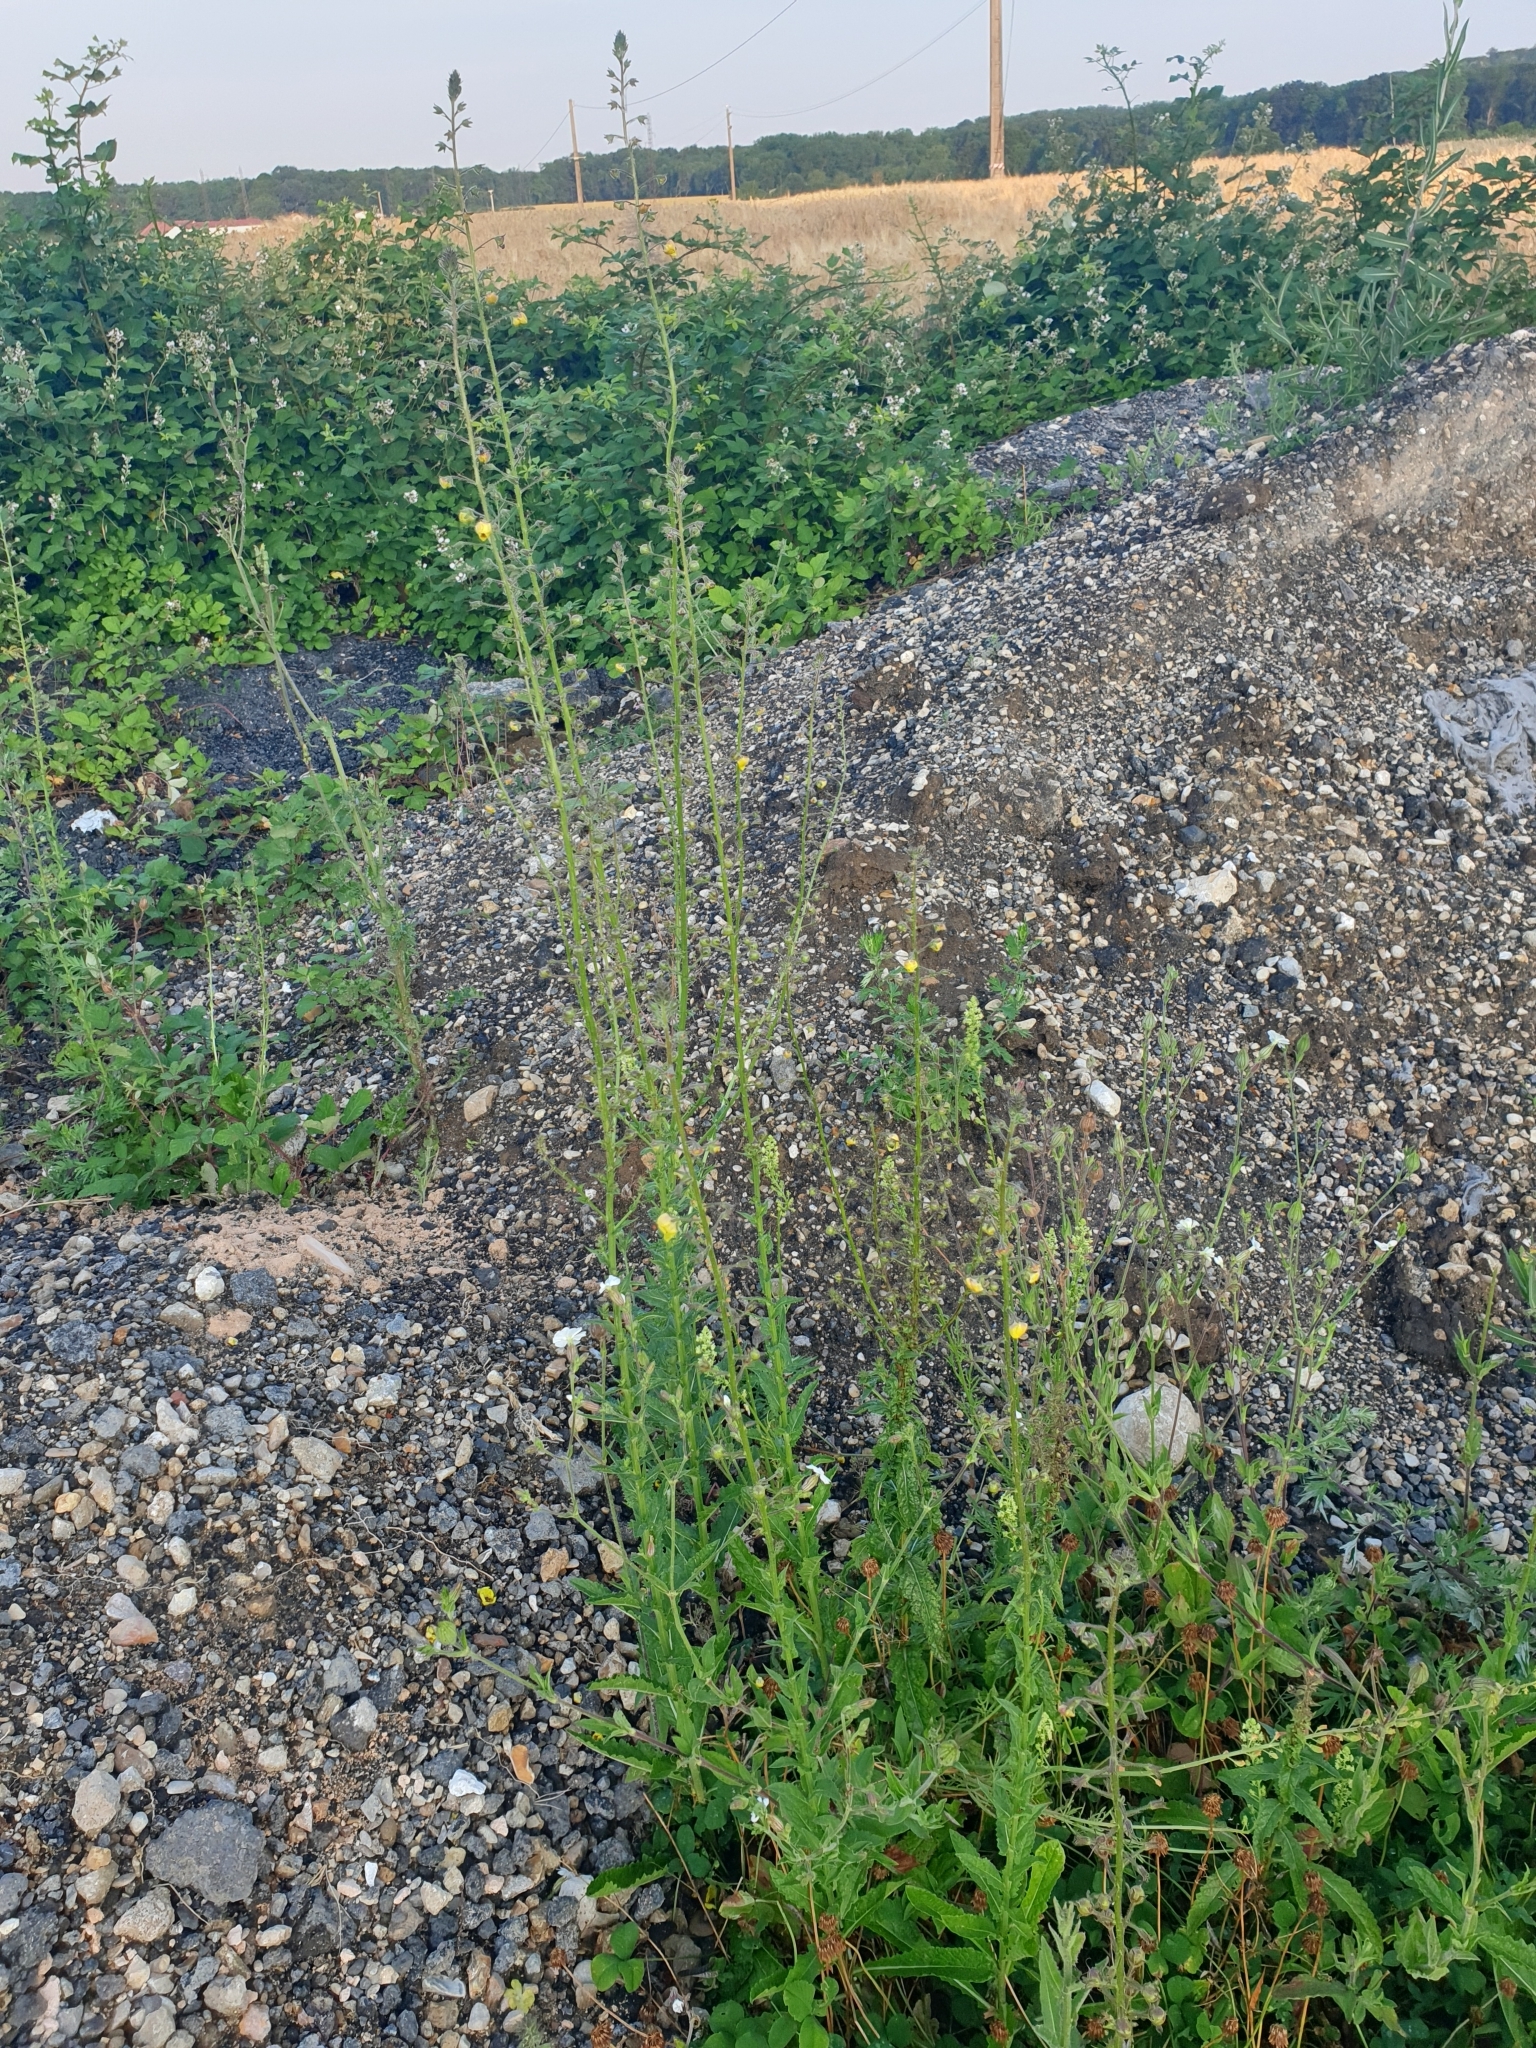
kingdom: Plantae
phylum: Tracheophyta
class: Magnoliopsida
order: Lamiales
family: Scrophulariaceae
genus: Verbascum
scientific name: Verbascum blattaria
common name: Moth mullein
